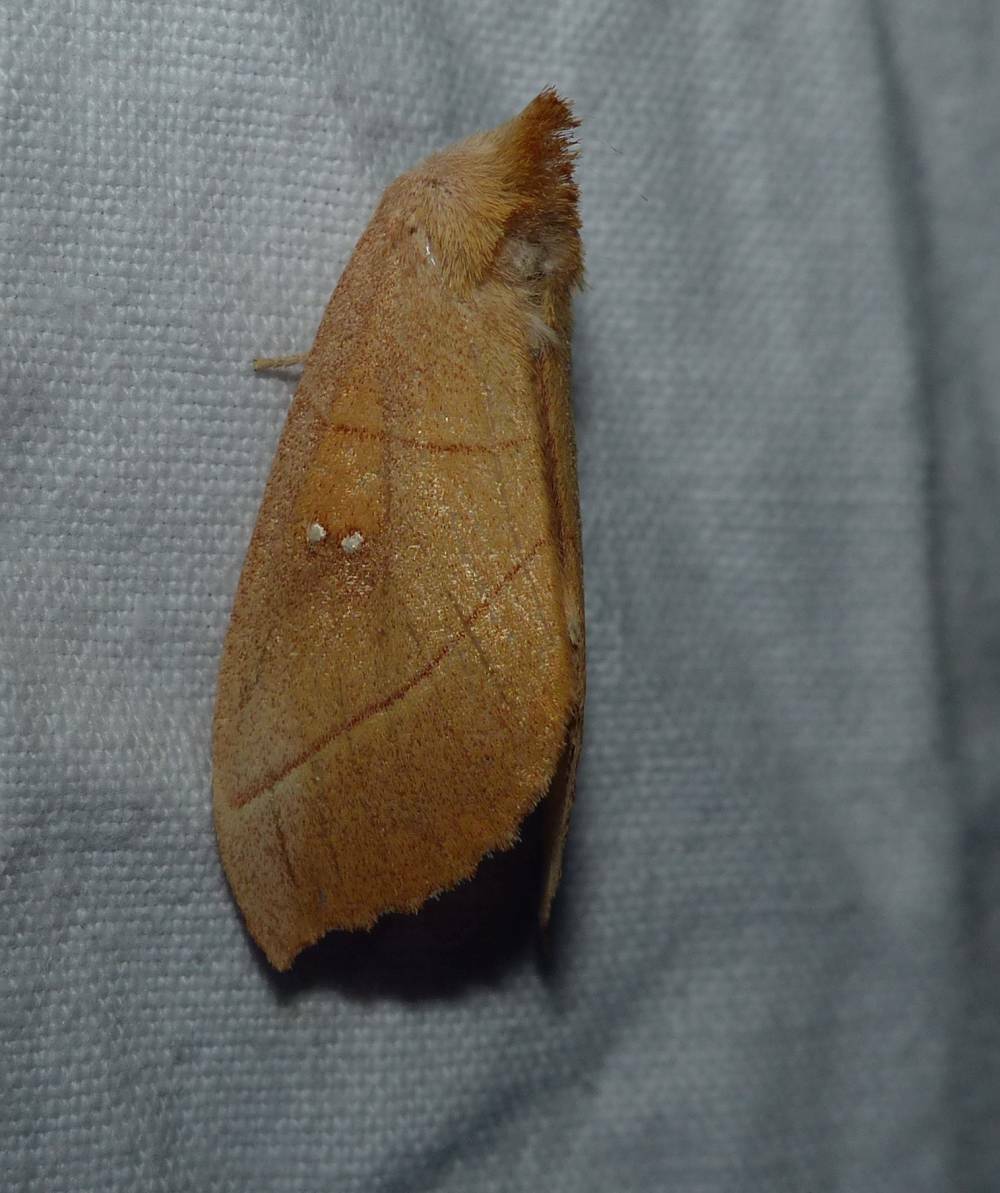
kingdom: Animalia
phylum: Arthropoda
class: Insecta
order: Lepidoptera
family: Notodontidae
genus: Nadata
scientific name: Nadata gibbosa
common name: White-dotted prominent
